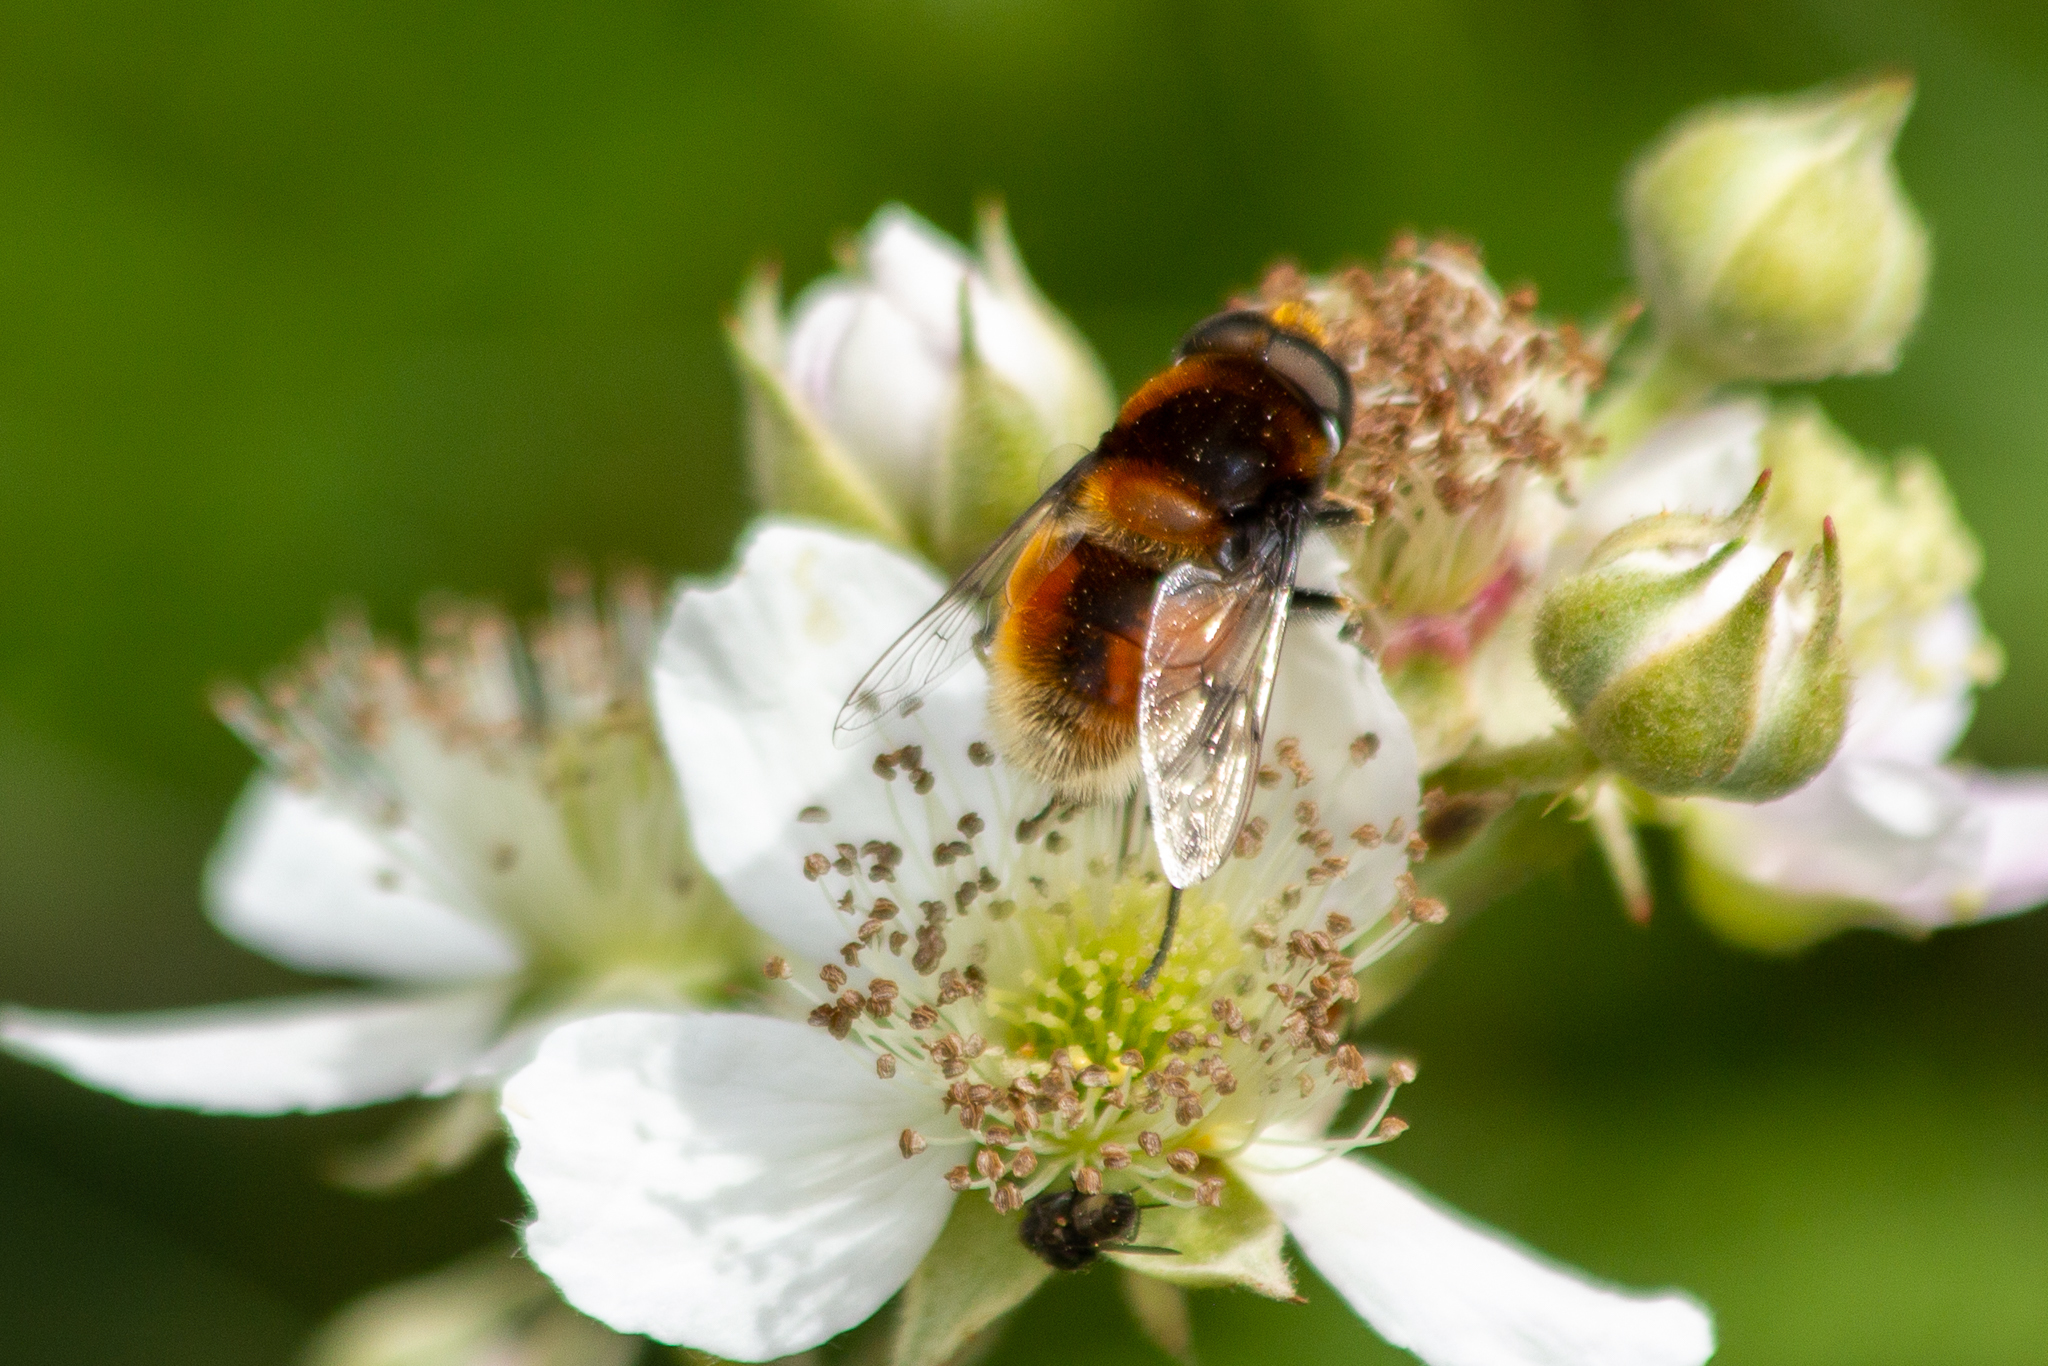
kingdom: Animalia
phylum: Arthropoda
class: Insecta
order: Diptera
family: Syrphidae
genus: Eristalis
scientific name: Eristalis intricaria
